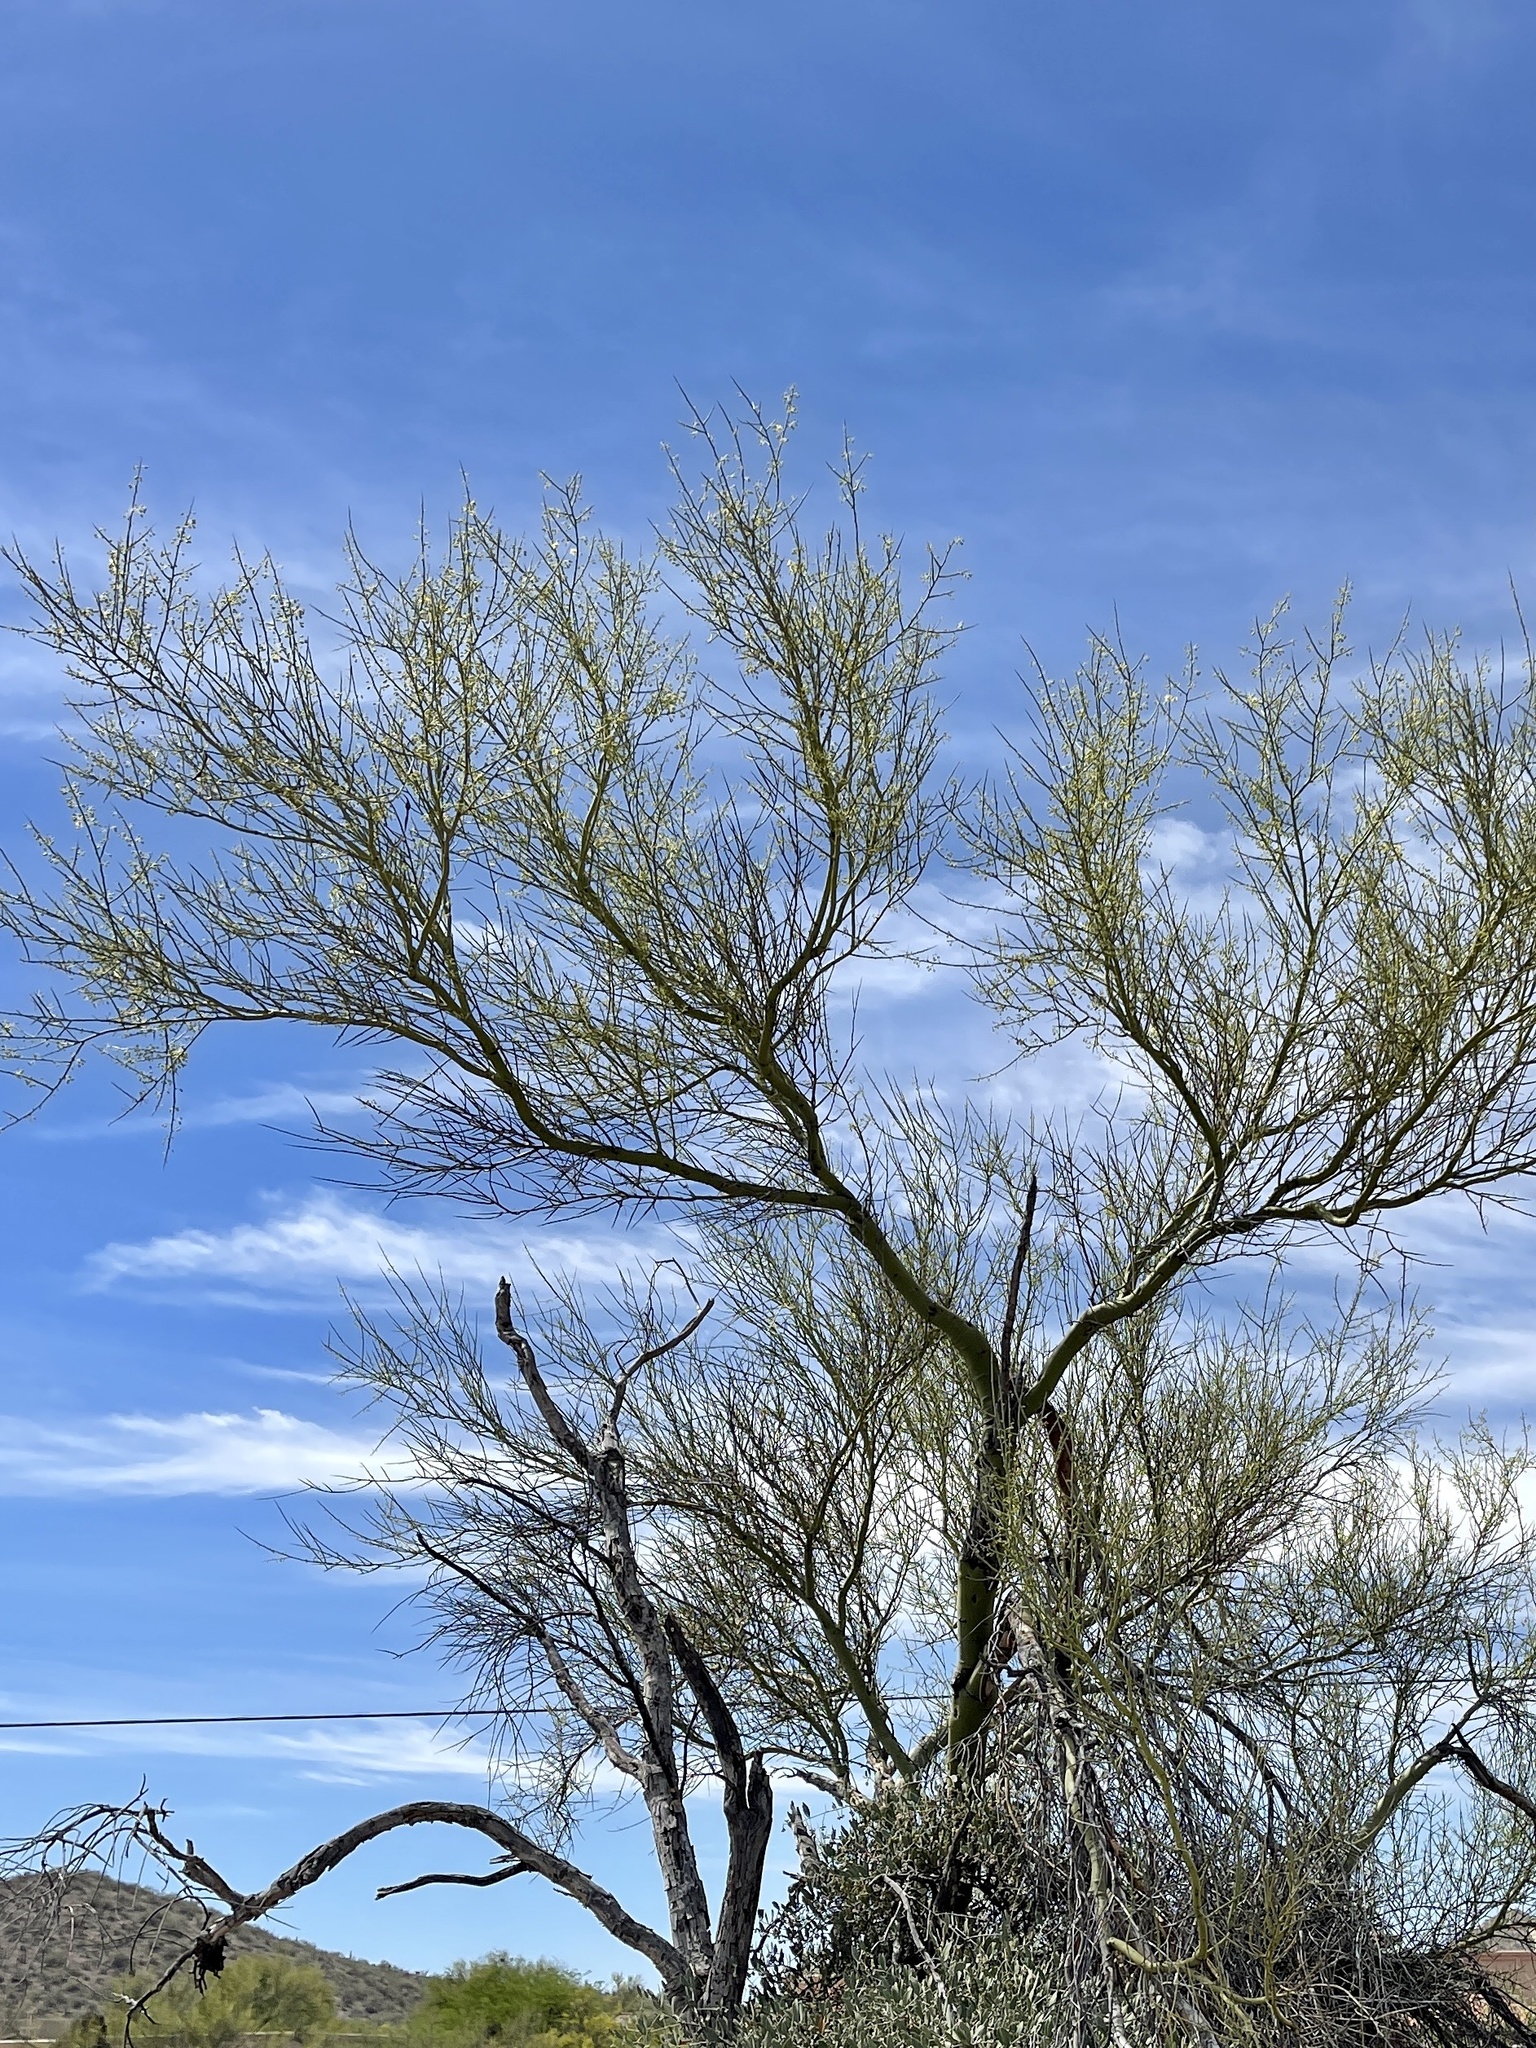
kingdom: Plantae
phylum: Tracheophyta
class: Magnoliopsida
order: Fabales
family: Fabaceae
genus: Parkinsonia
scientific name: Parkinsonia microphylla
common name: Yellow paloverde
